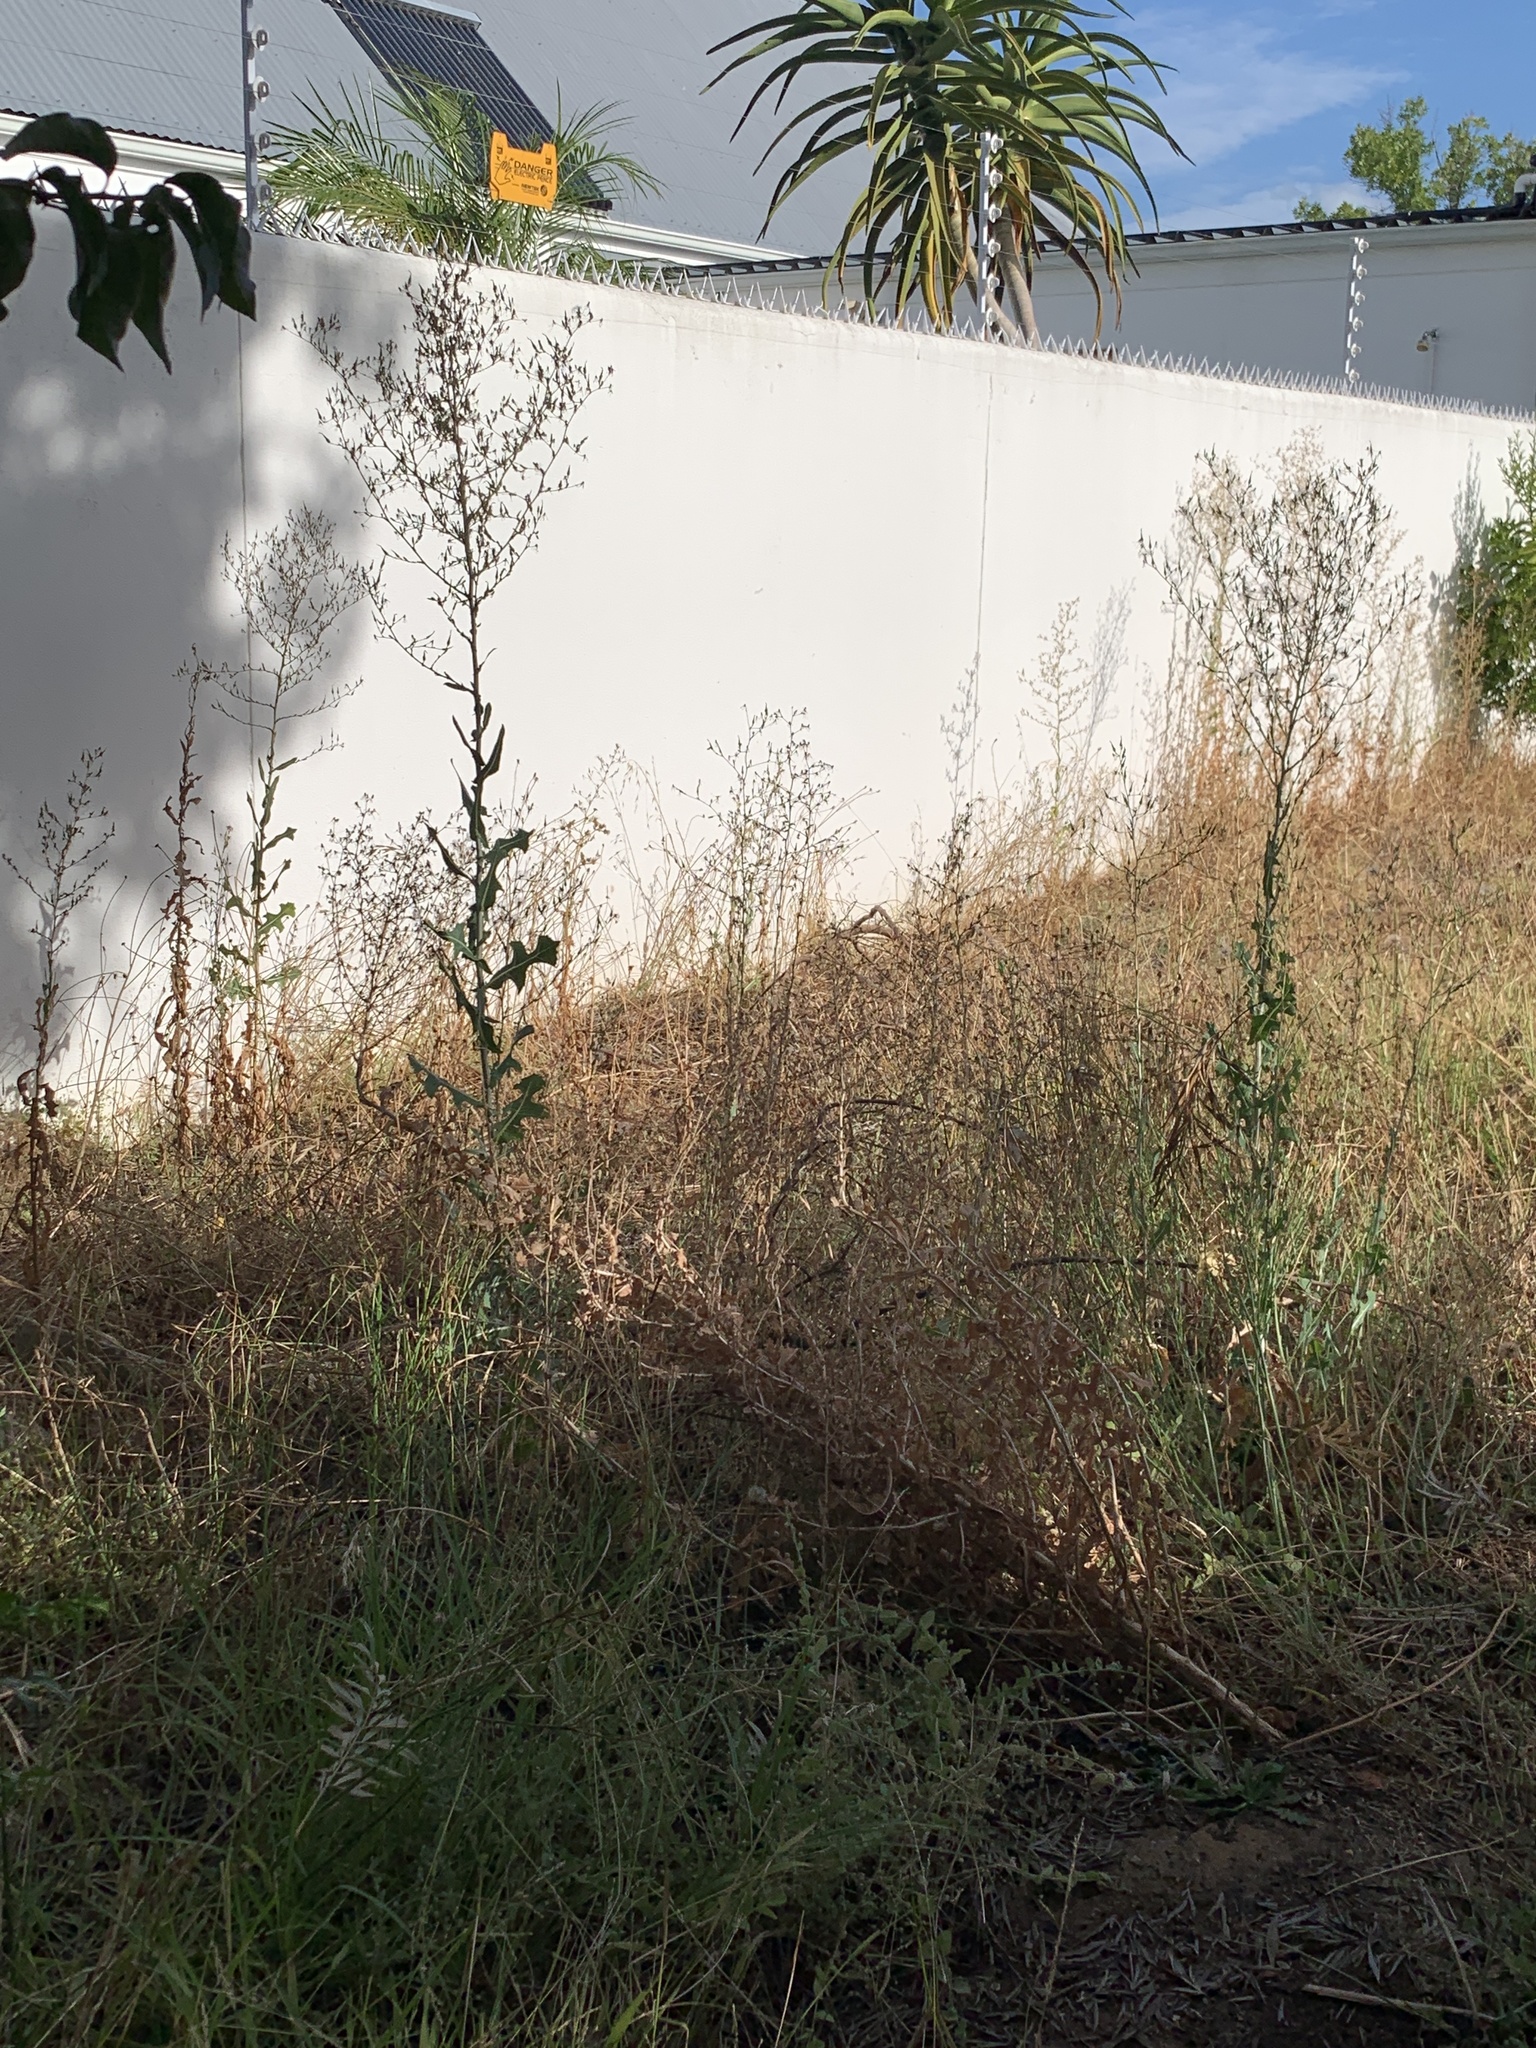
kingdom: Plantae
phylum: Tracheophyta
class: Magnoliopsida
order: Asterales
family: Asteraceae
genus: Lactuca
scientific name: Lactuca serriola
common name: Prickly lettuce
